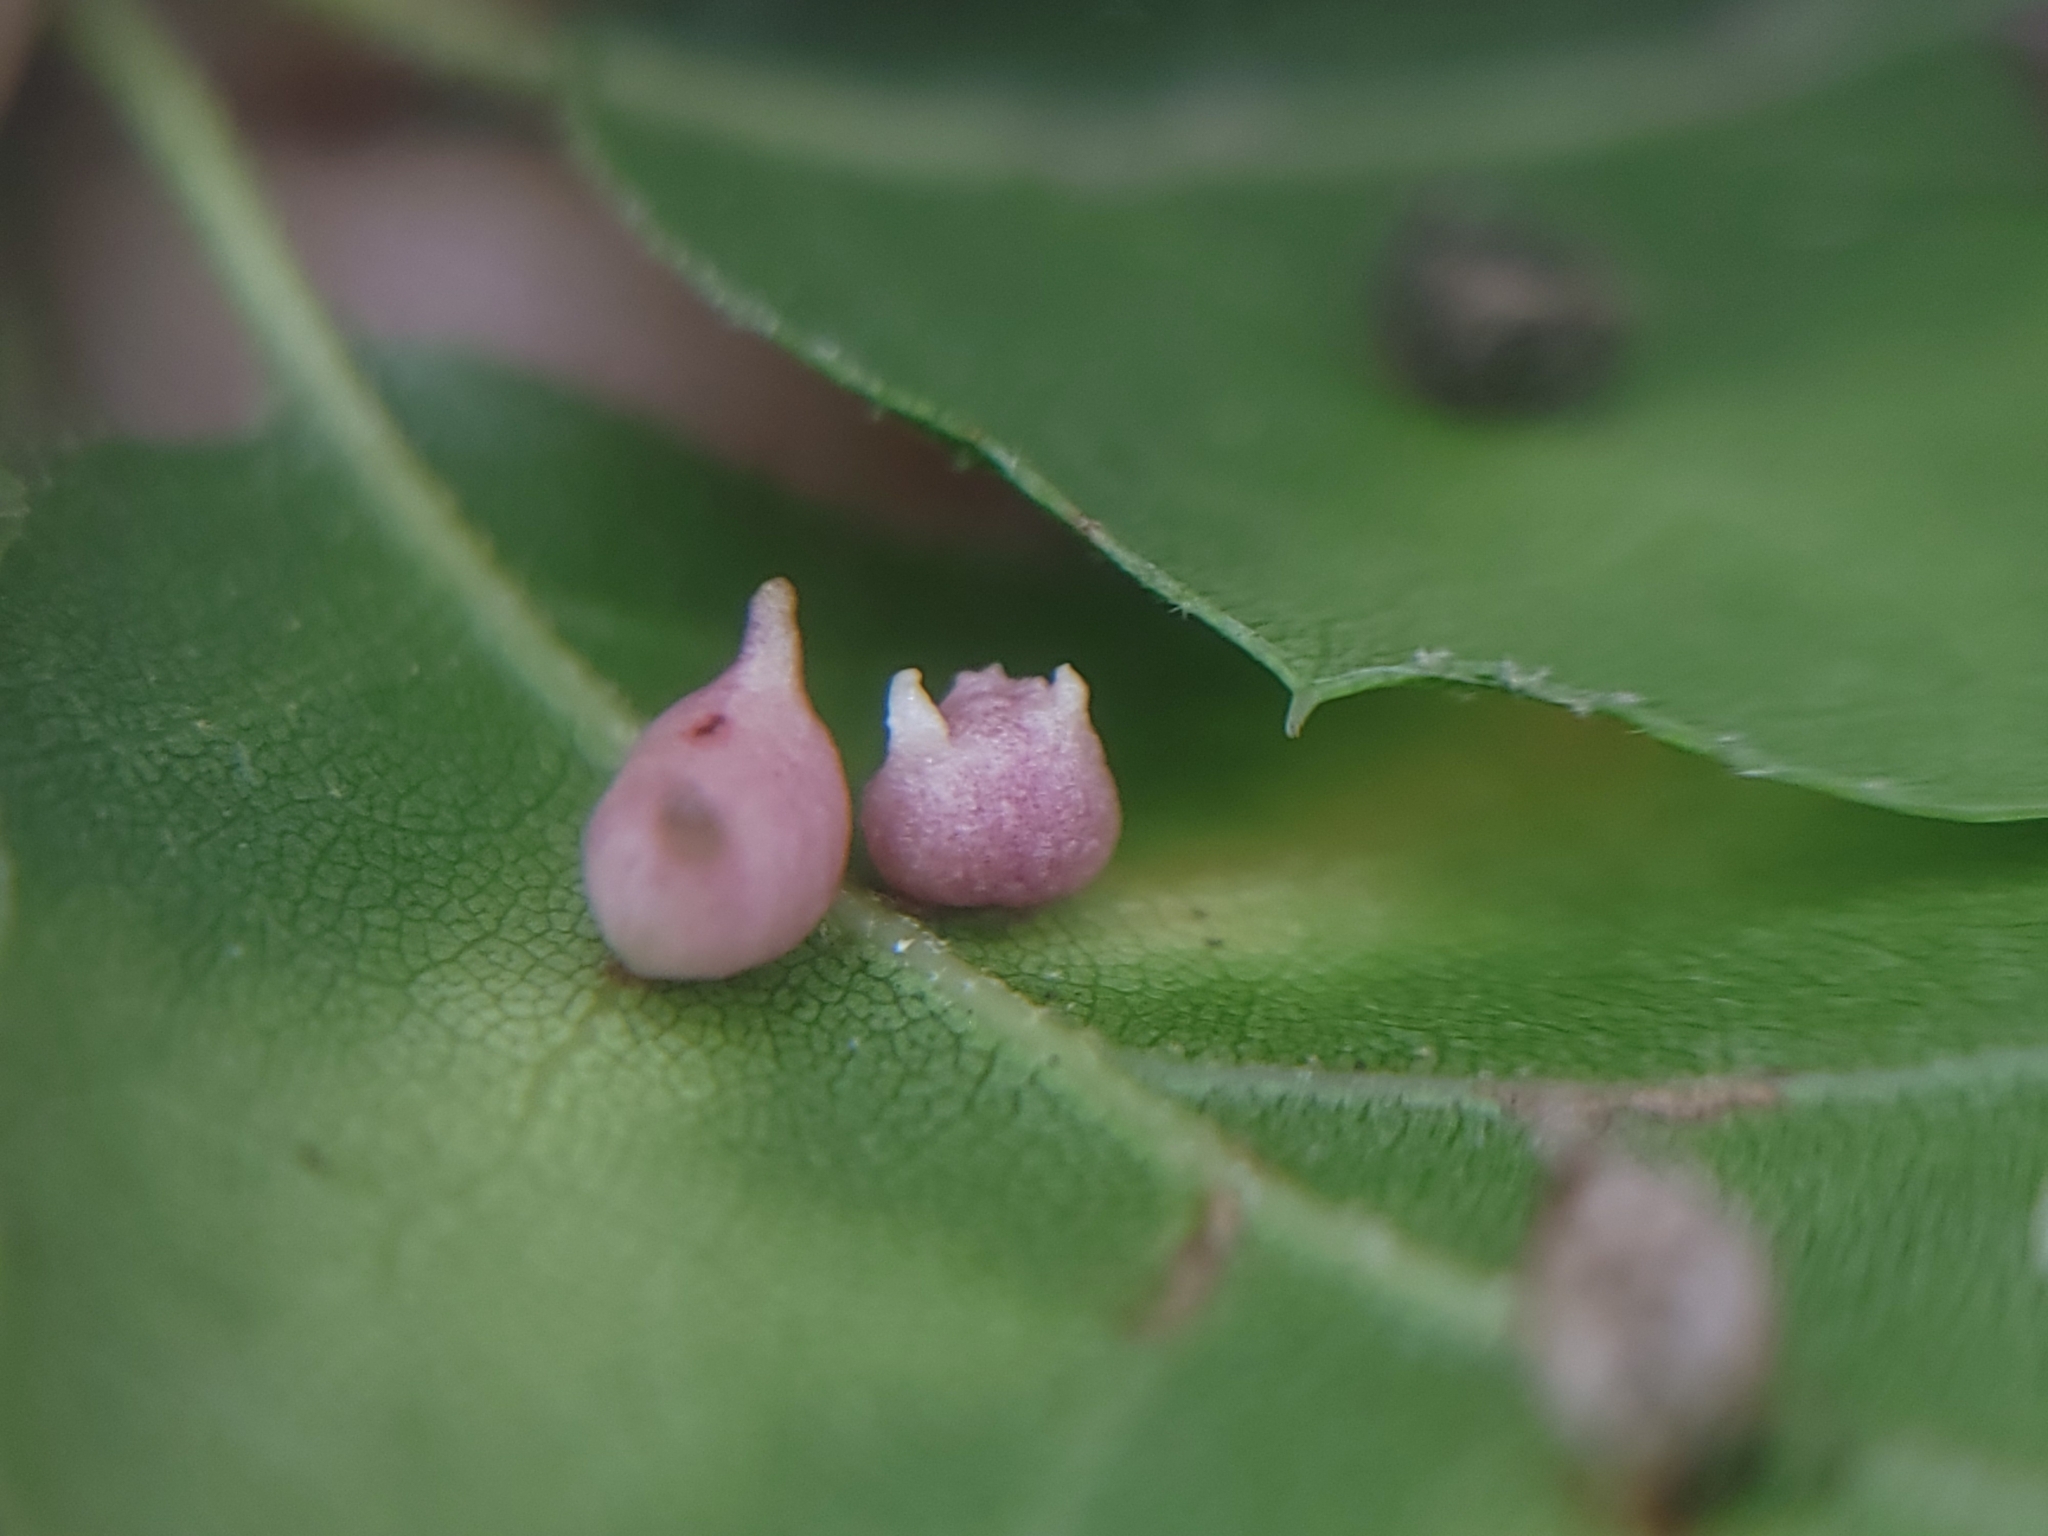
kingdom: Animalia
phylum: Arthropoda
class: Insecta
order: Hymenoptera
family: Cynipidae
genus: Dryocosmus
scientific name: Dryocosmus
